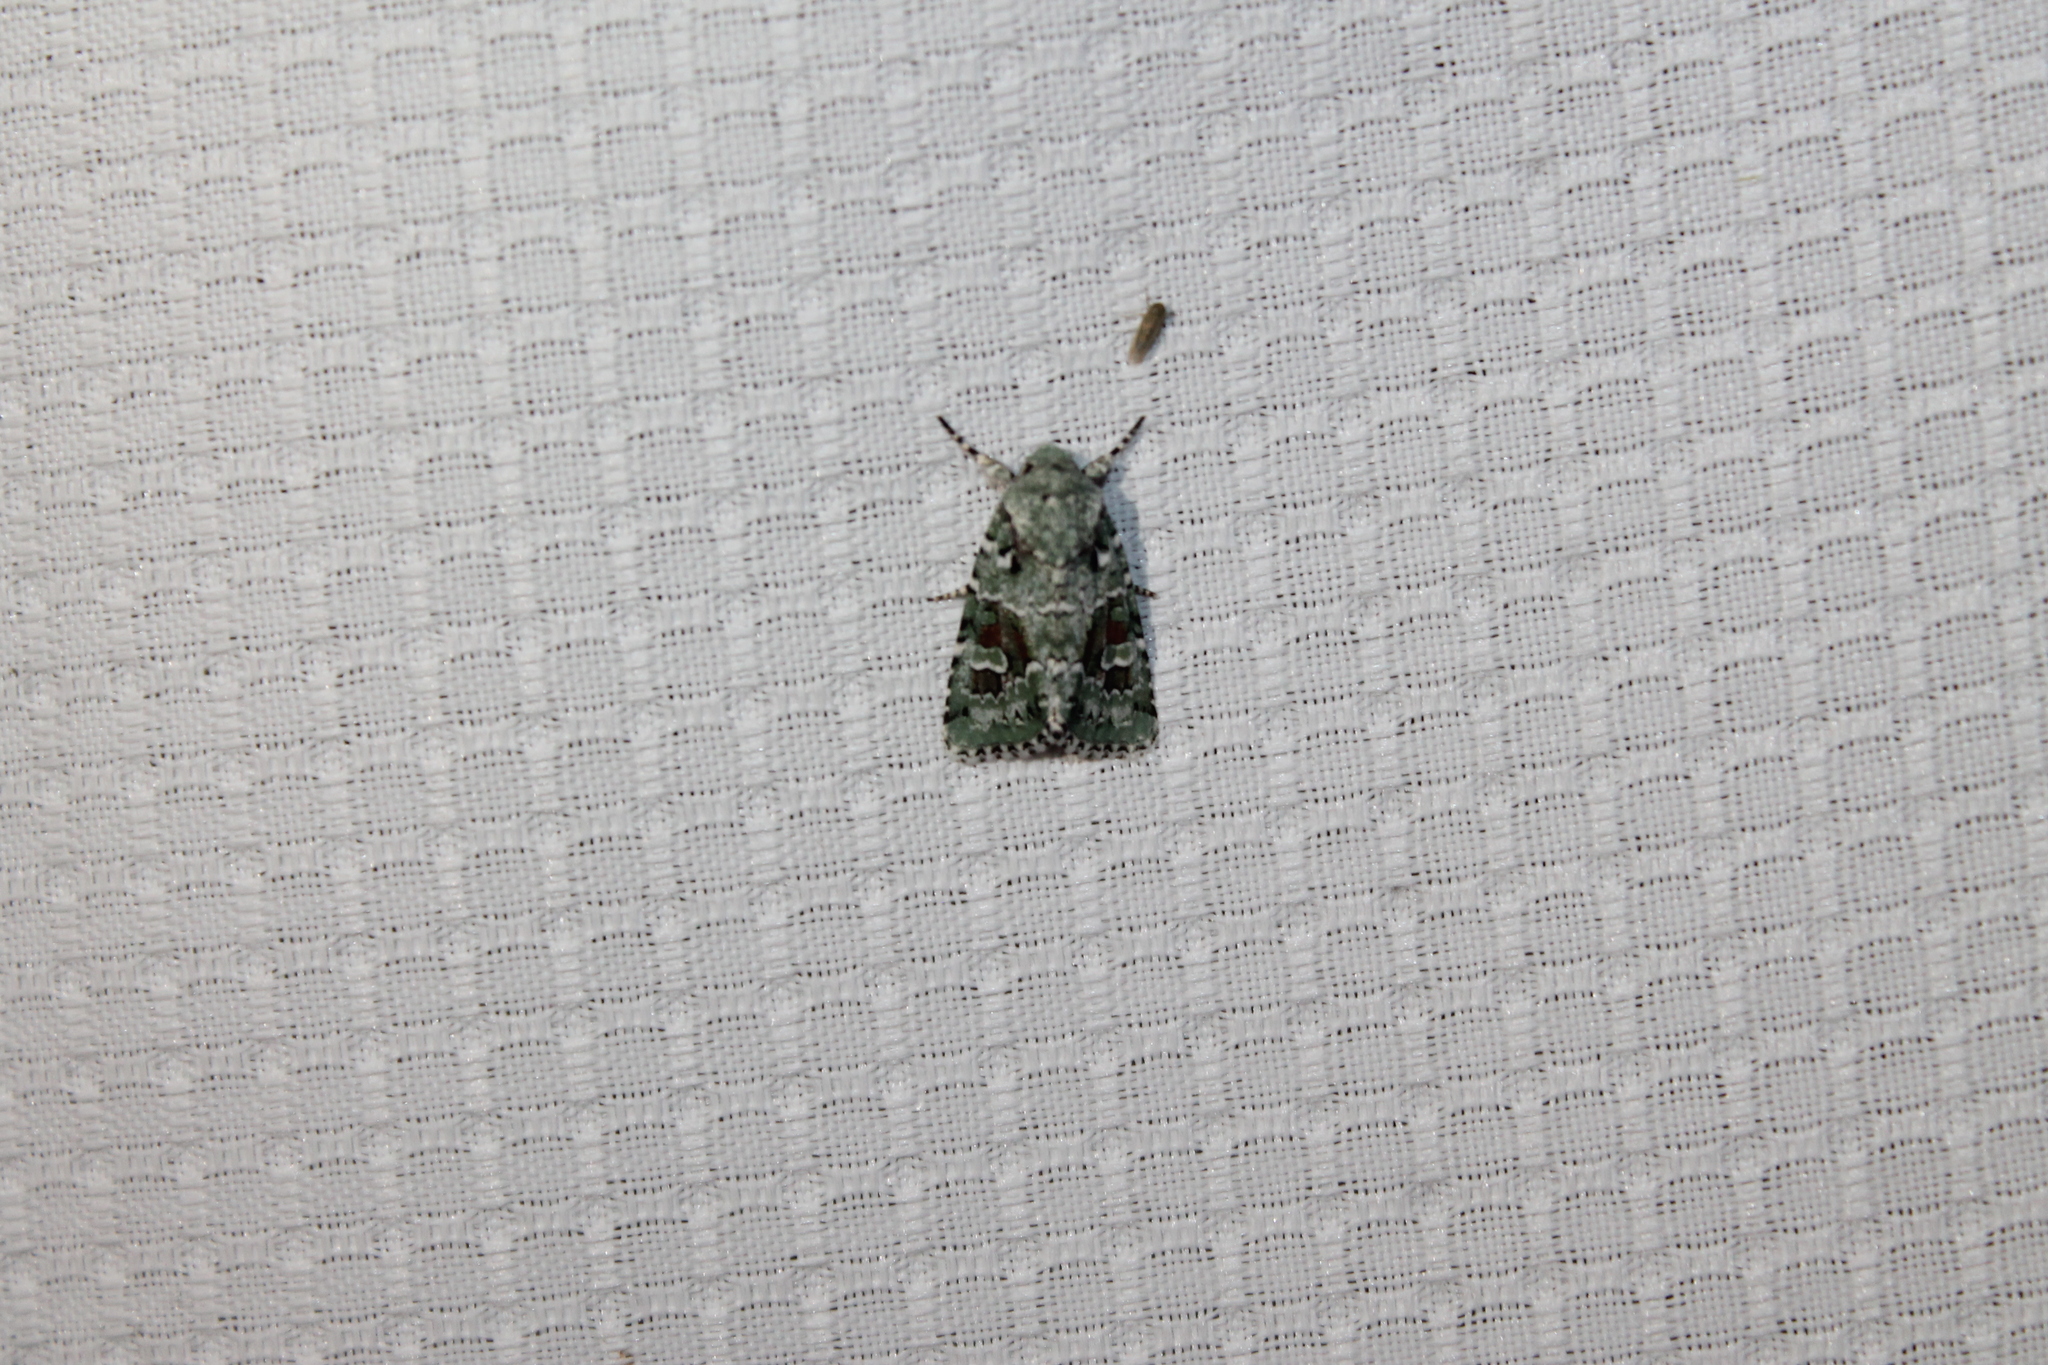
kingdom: Animalia
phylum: Arthropoda
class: Insecta
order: Lepidoptera
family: Noctuidae
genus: Lacinipolia
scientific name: Lacinipolia laudabilis
